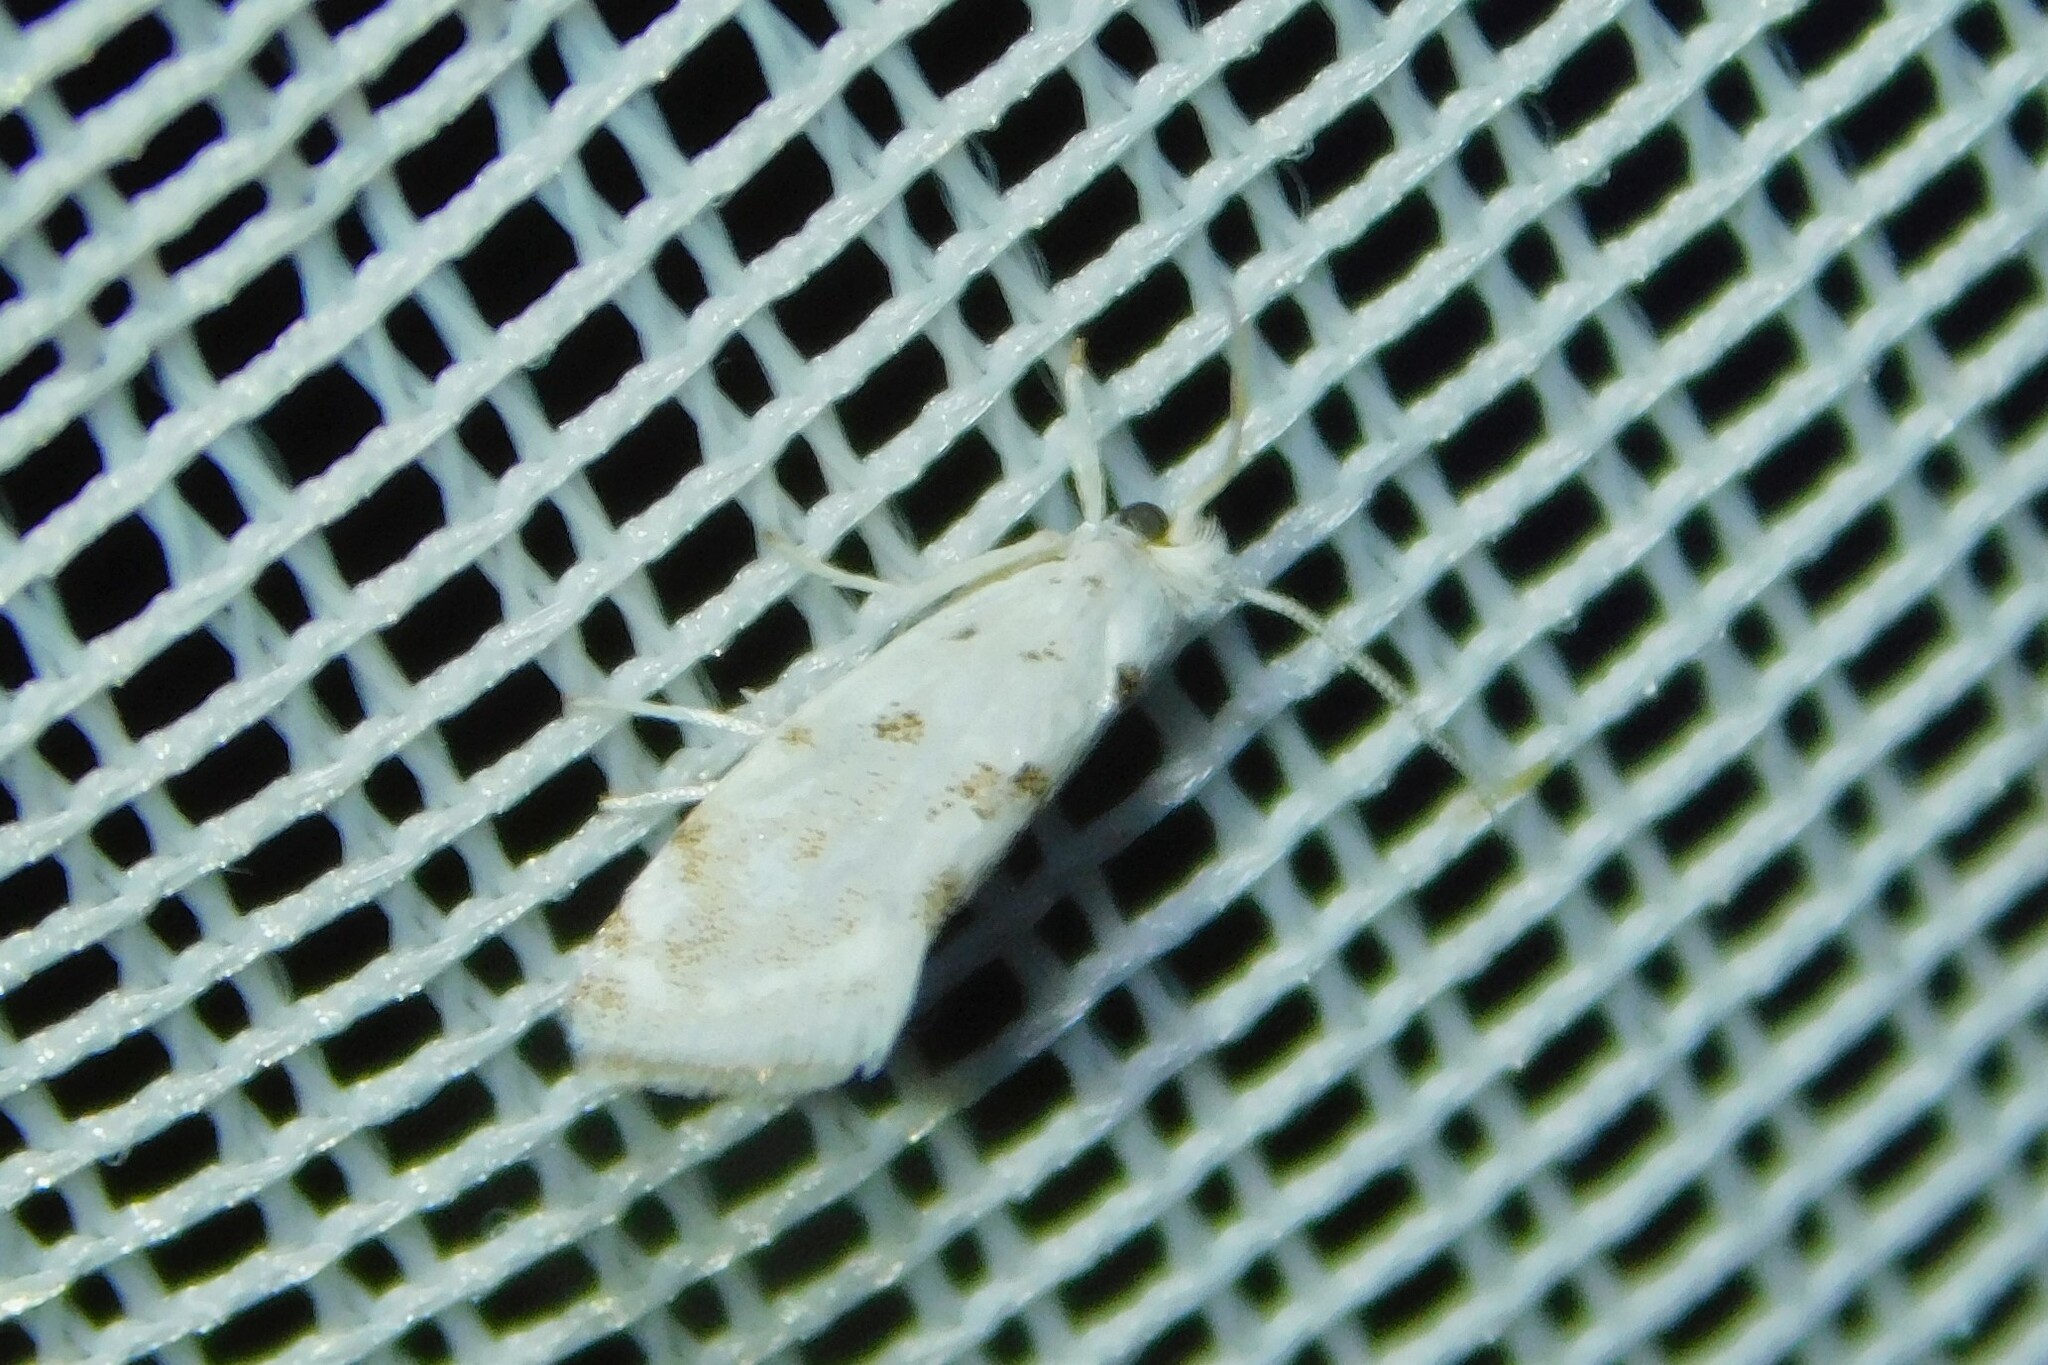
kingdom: Animalia
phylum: Arthropoda
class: Insecta
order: Lepidoptera
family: Yponomeutidae
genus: Niphonympha
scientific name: Niphonympha albella
